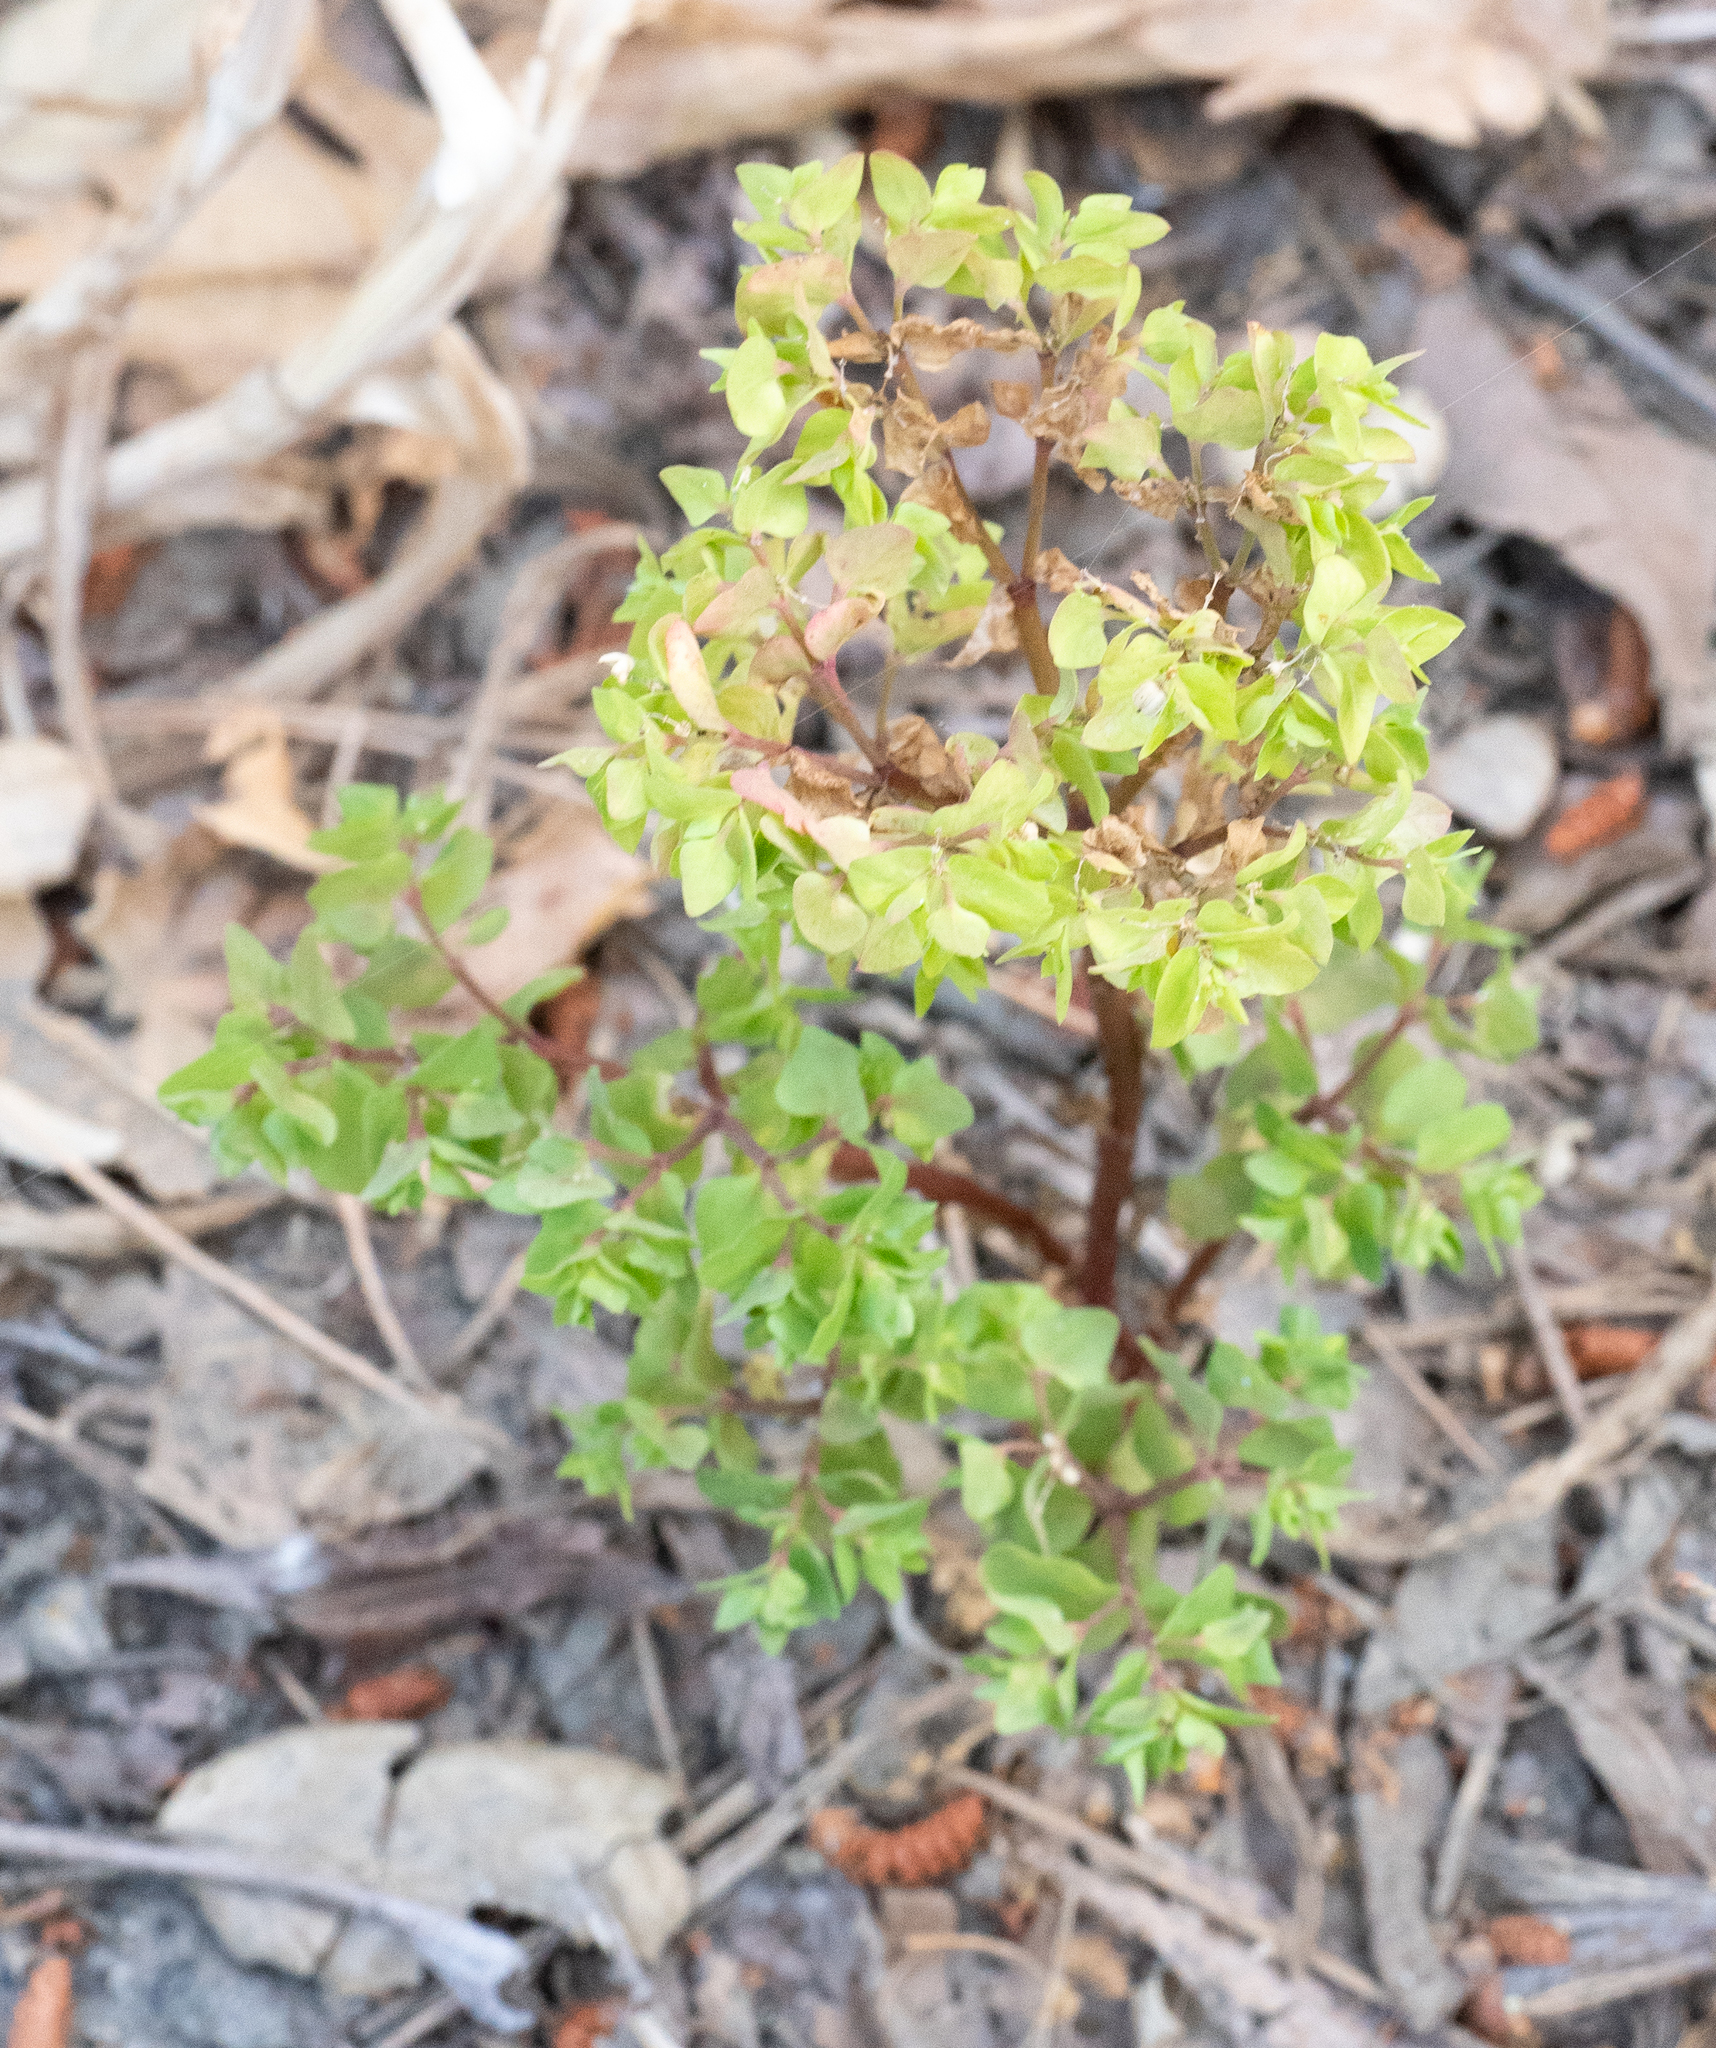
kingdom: Plantae
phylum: Tracheophyta
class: Magnoliopsida
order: Malpighiales
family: Euphorbiaceae
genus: Euphorbia
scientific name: Euphorbia peplus
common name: Petty spurge
